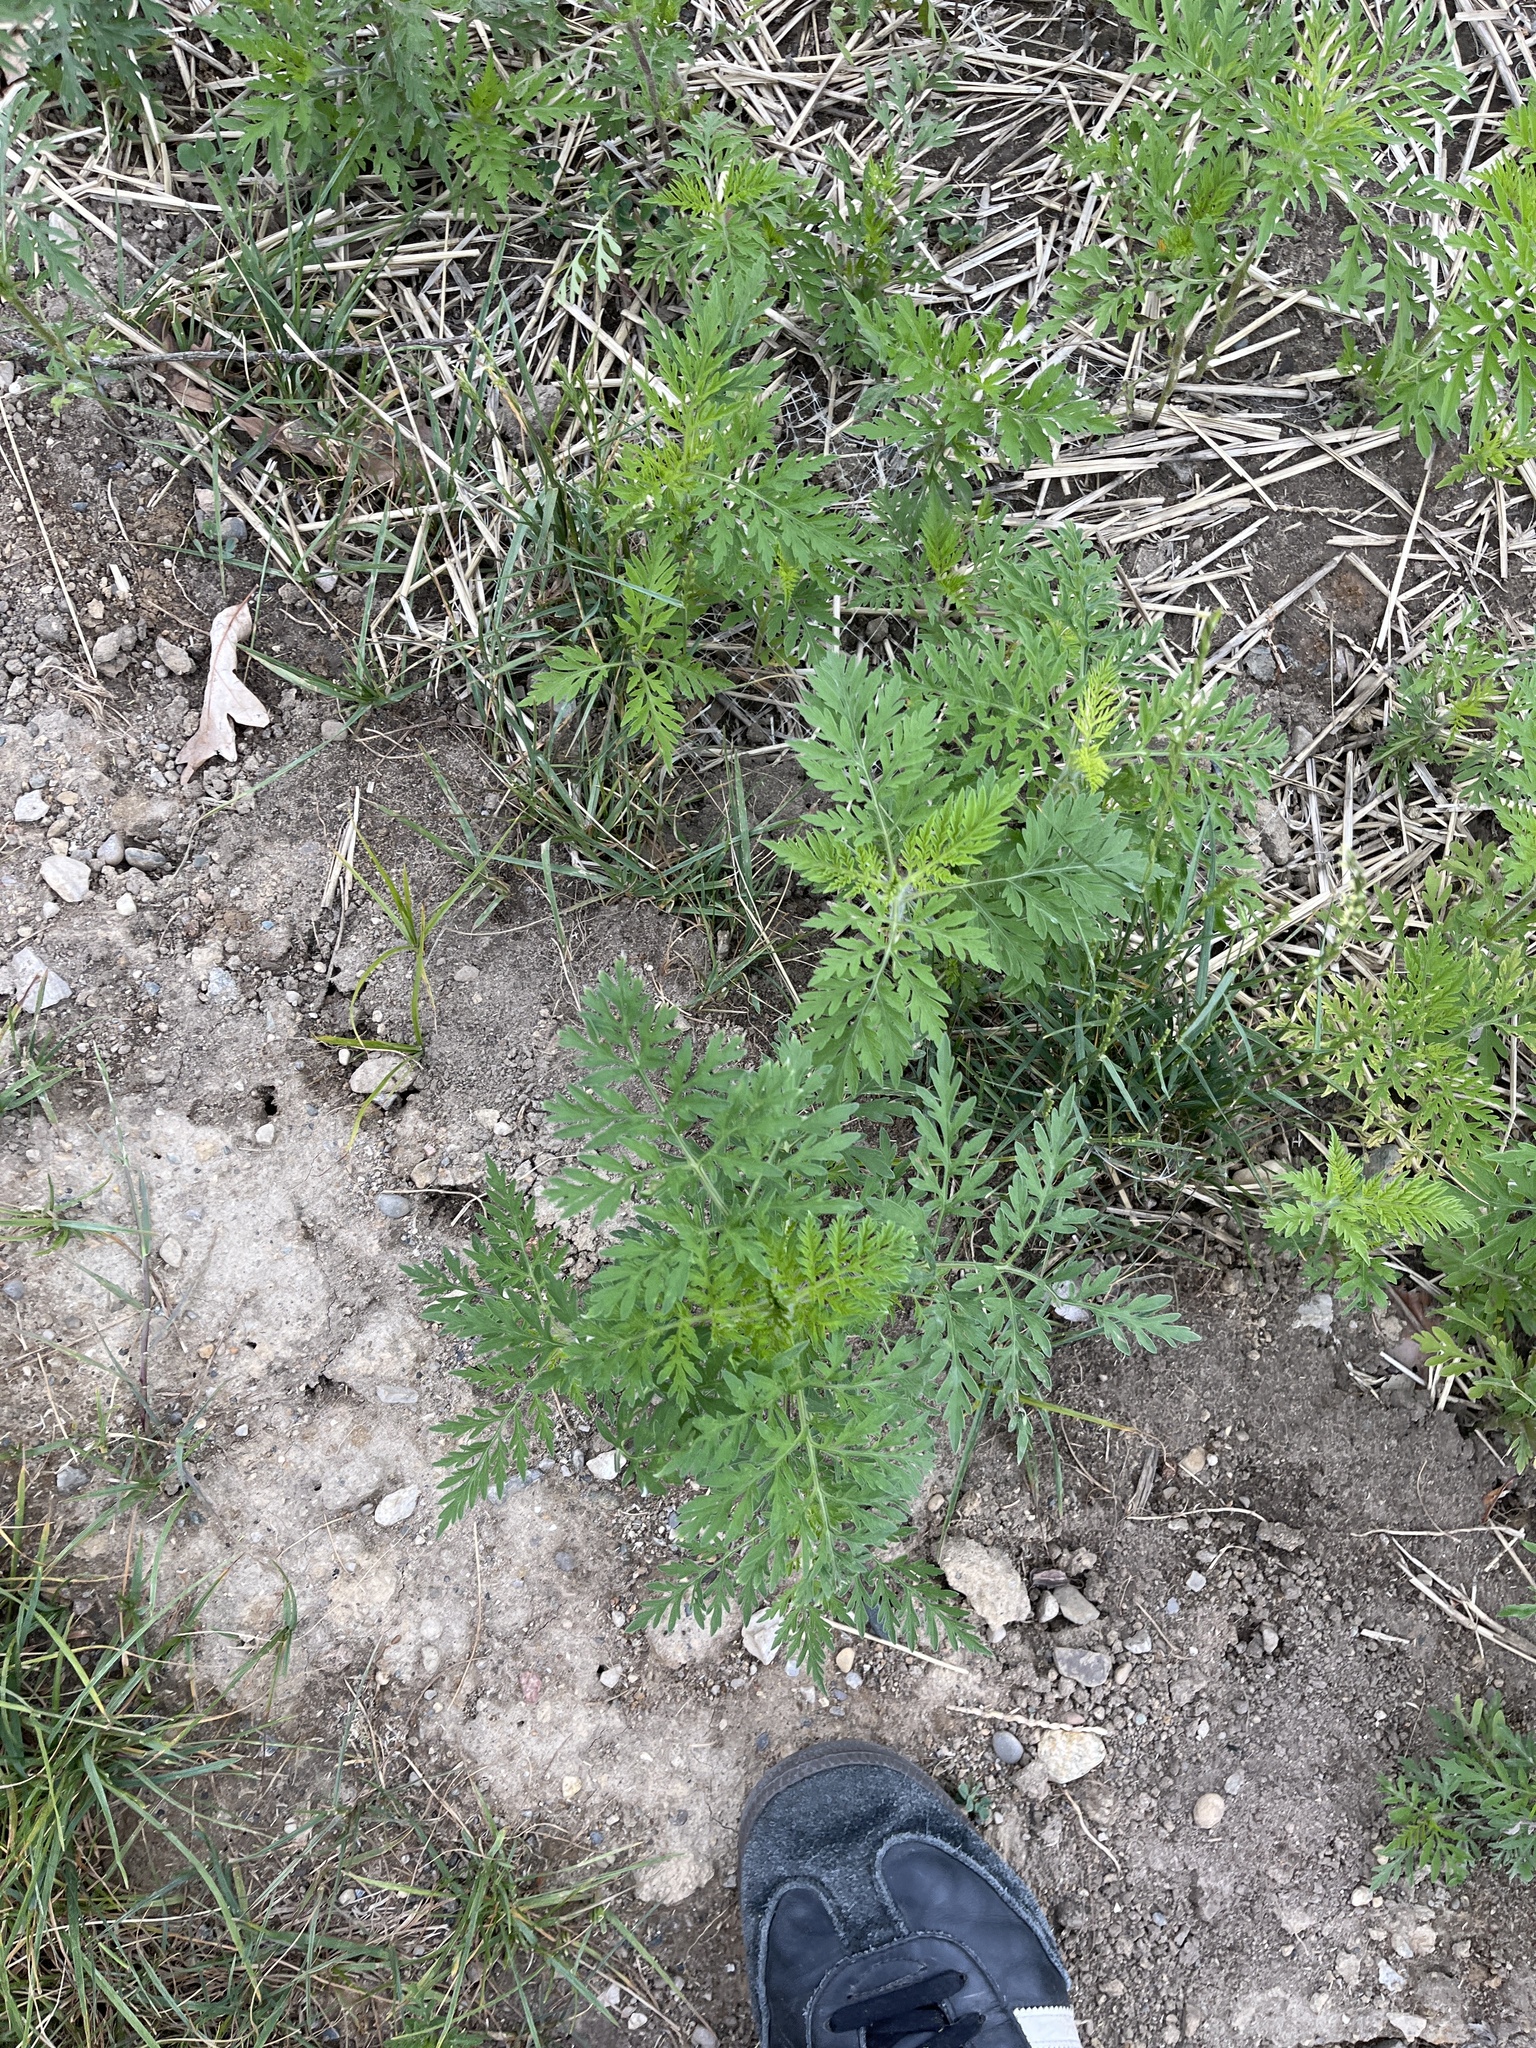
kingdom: Plantae
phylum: Tracheophyta
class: Magnoliopsida
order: Asterales
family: Asteraceae
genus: Ambrosia
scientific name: Ambrosia artemisiifolia
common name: Annual ragweed
